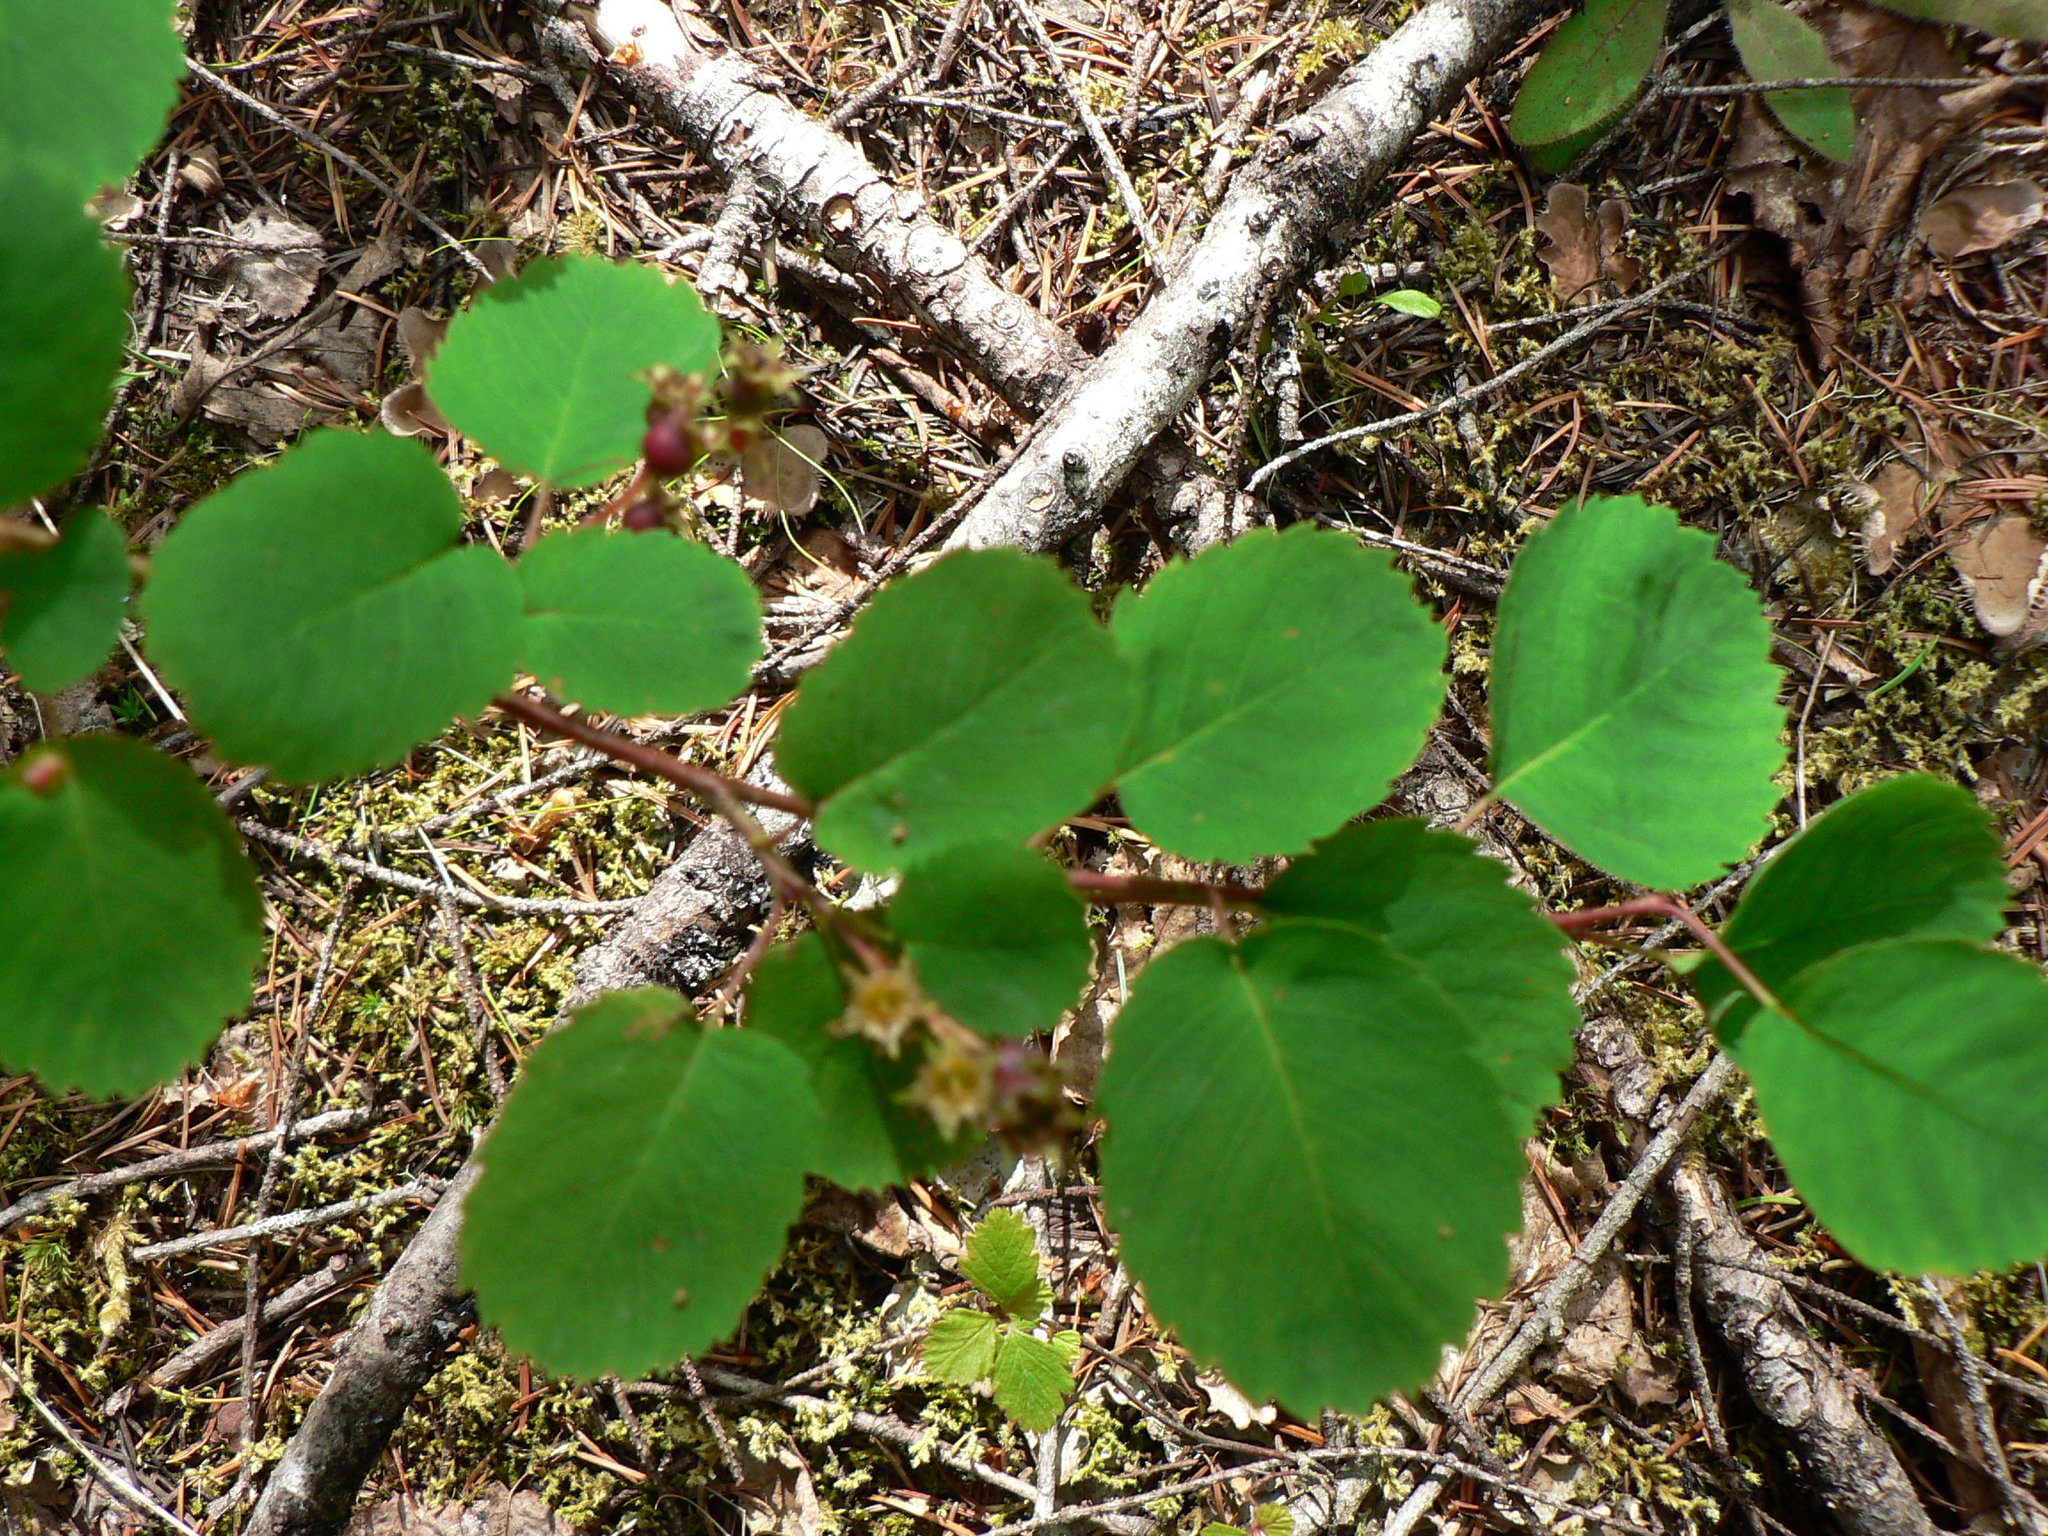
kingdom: Plantae
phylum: Tracheophyta
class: Magnoliopsida
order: Rosales
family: Rosaceae
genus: Amelanchier
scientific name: Amelanchier alnifolia
